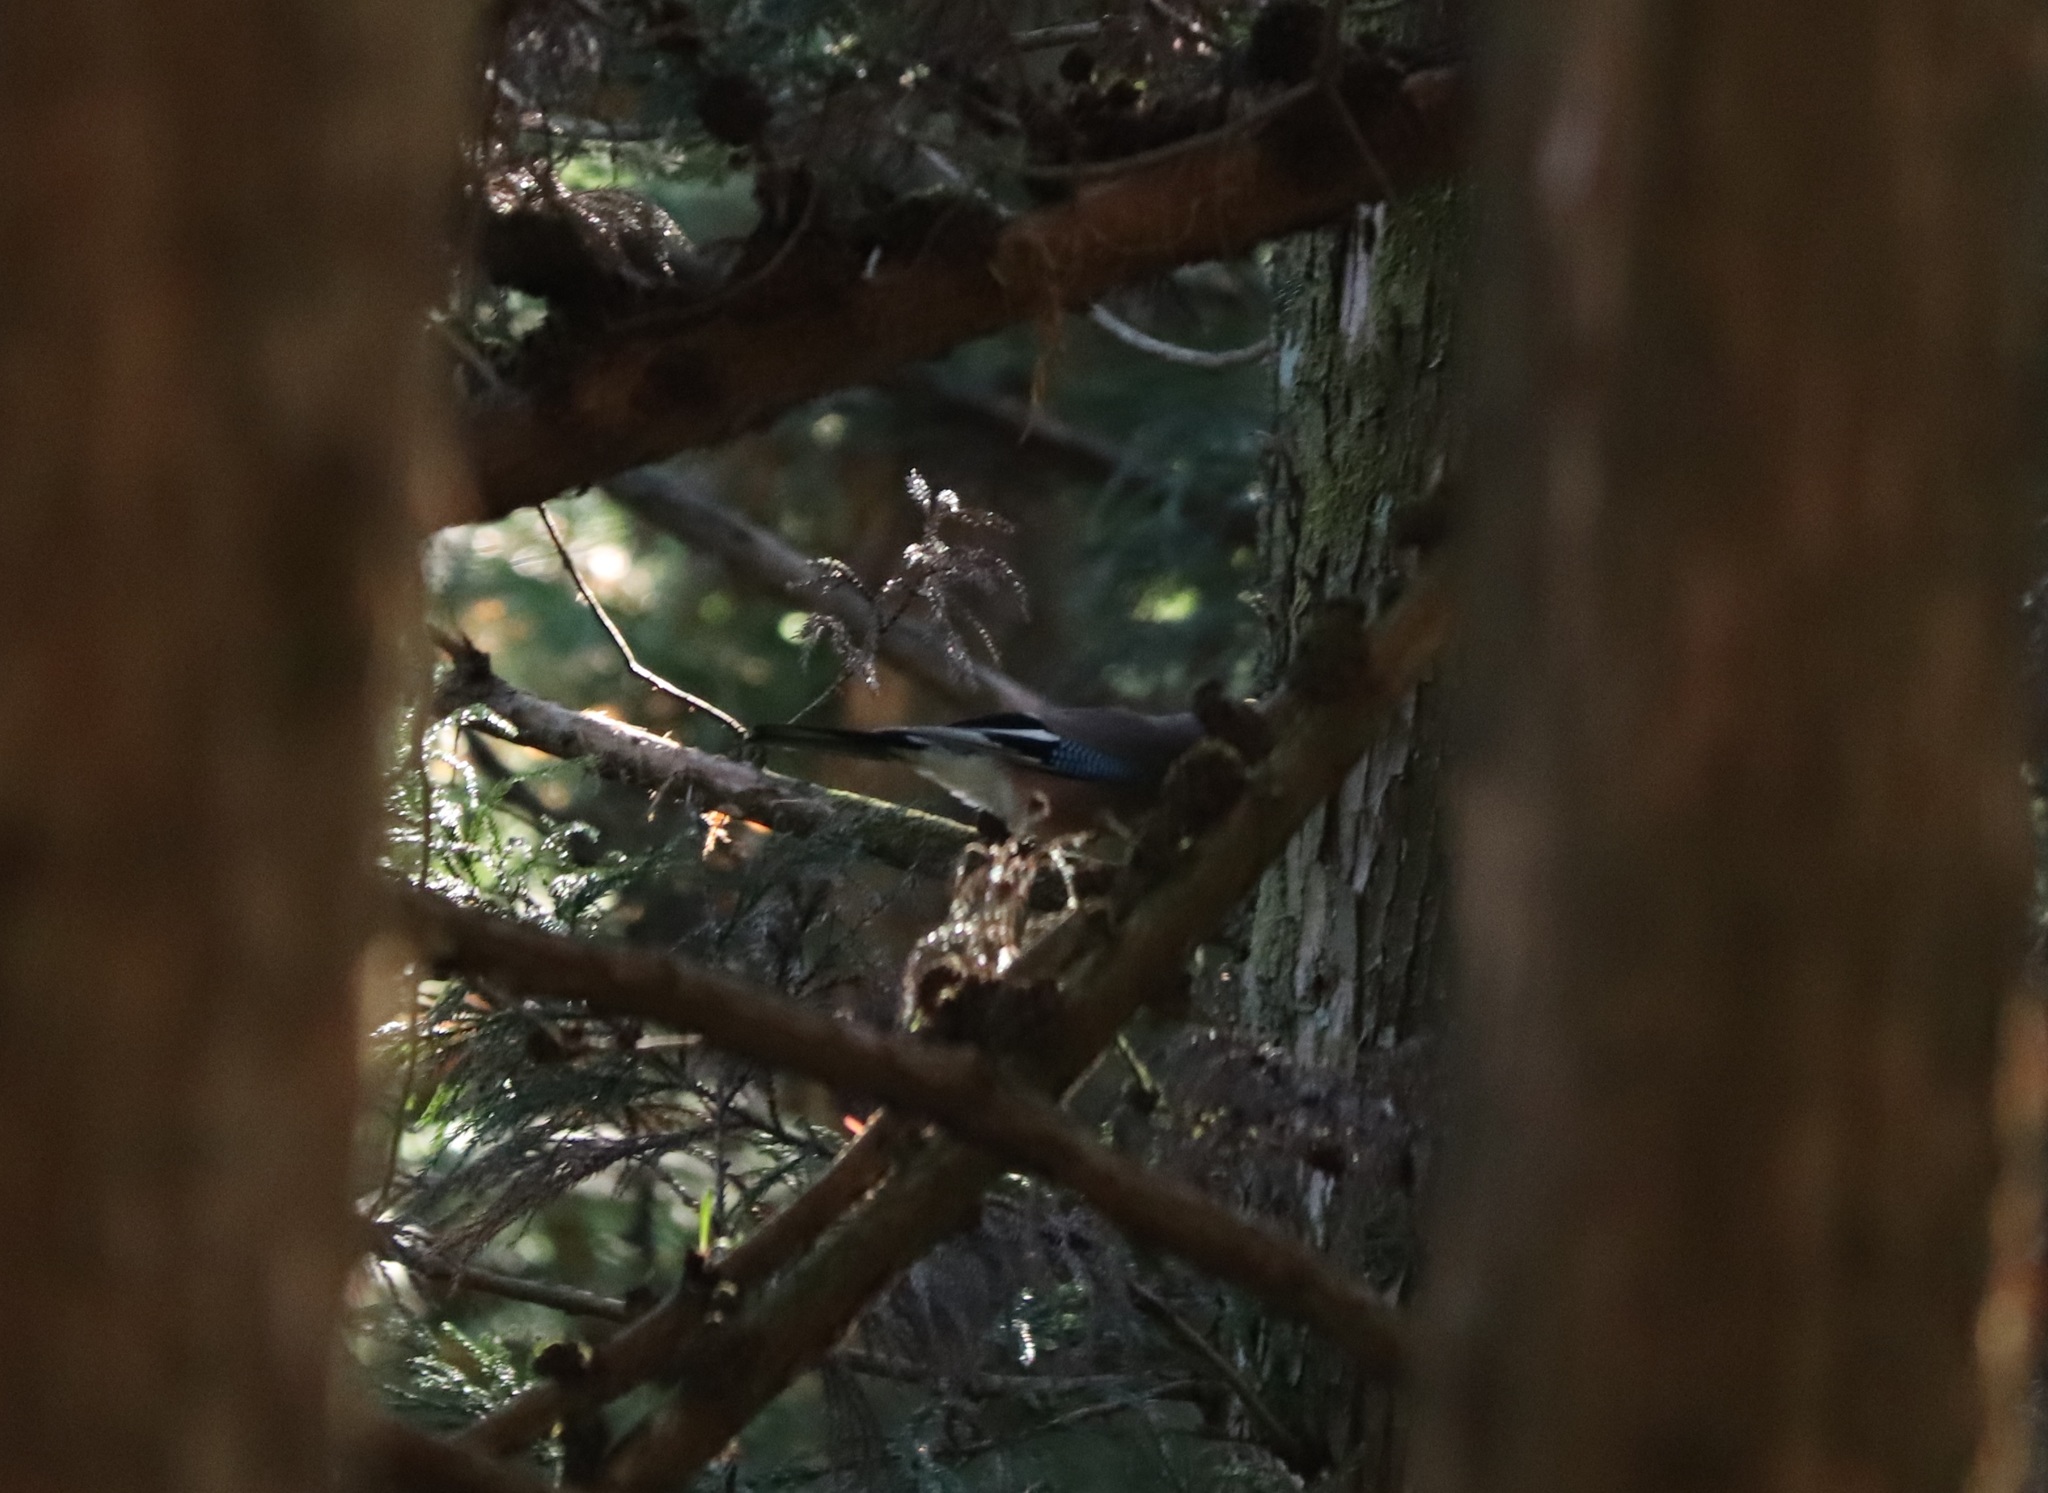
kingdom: Animalia
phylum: Chordata
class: Aves
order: Passeriformes
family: Corvidae
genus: Garrulus
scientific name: Garrulus glandarius
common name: Eurasian jay
